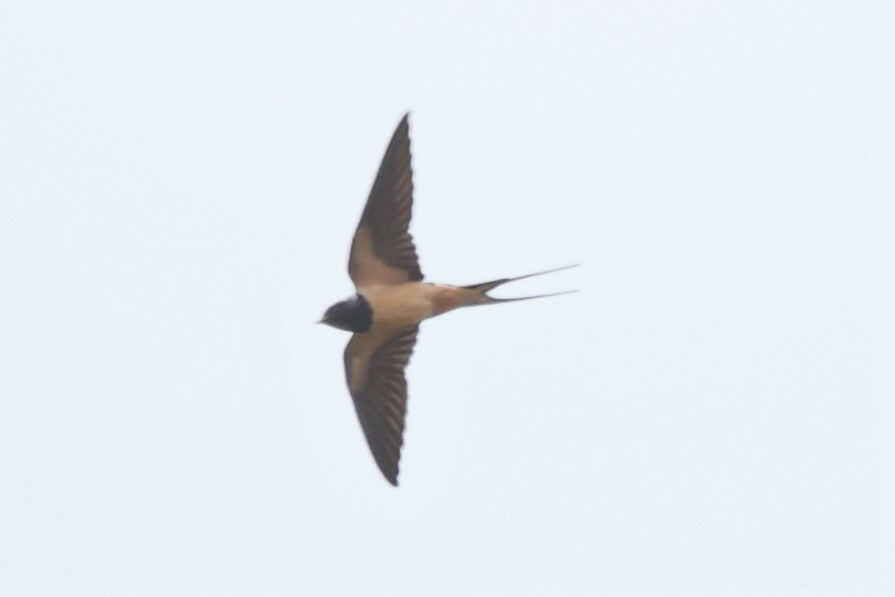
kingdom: Animalia
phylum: Chordata
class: Aves
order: Passeriformes
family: Hirundinidae
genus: Hirundo
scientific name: Hirundo rustica
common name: Barn swallow
